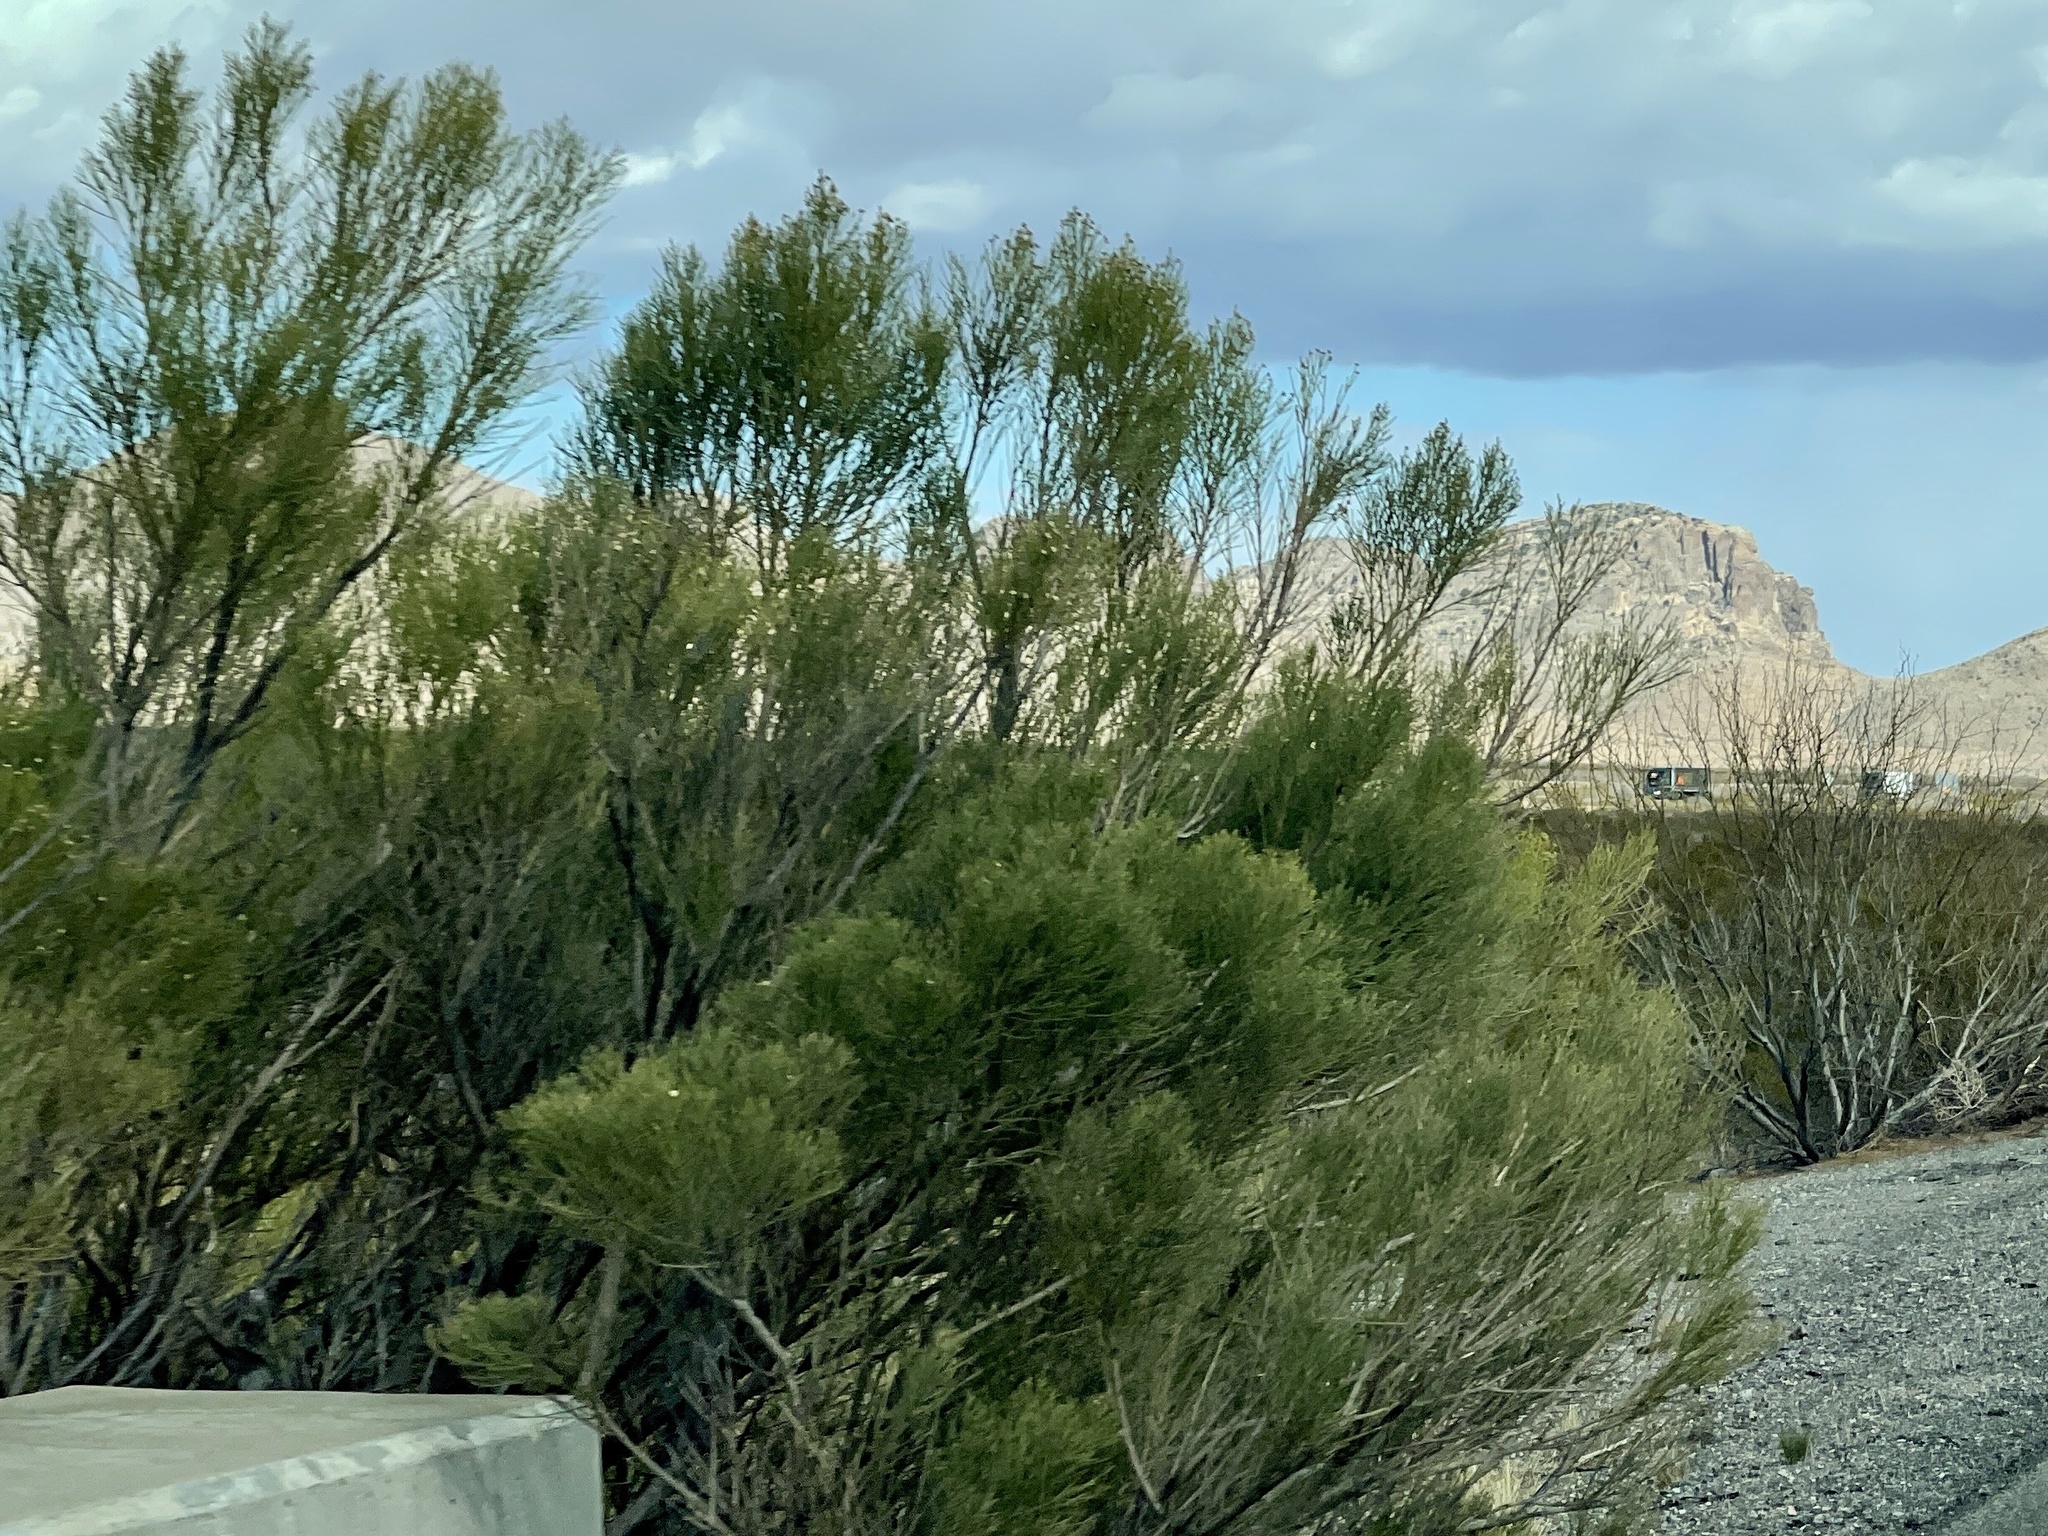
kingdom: Plantae
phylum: Tracheophyta
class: Magnoliopsida
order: Asterales
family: Asteraceae
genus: Baccharis
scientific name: Baccharis sarothroides
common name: Desert-broom
